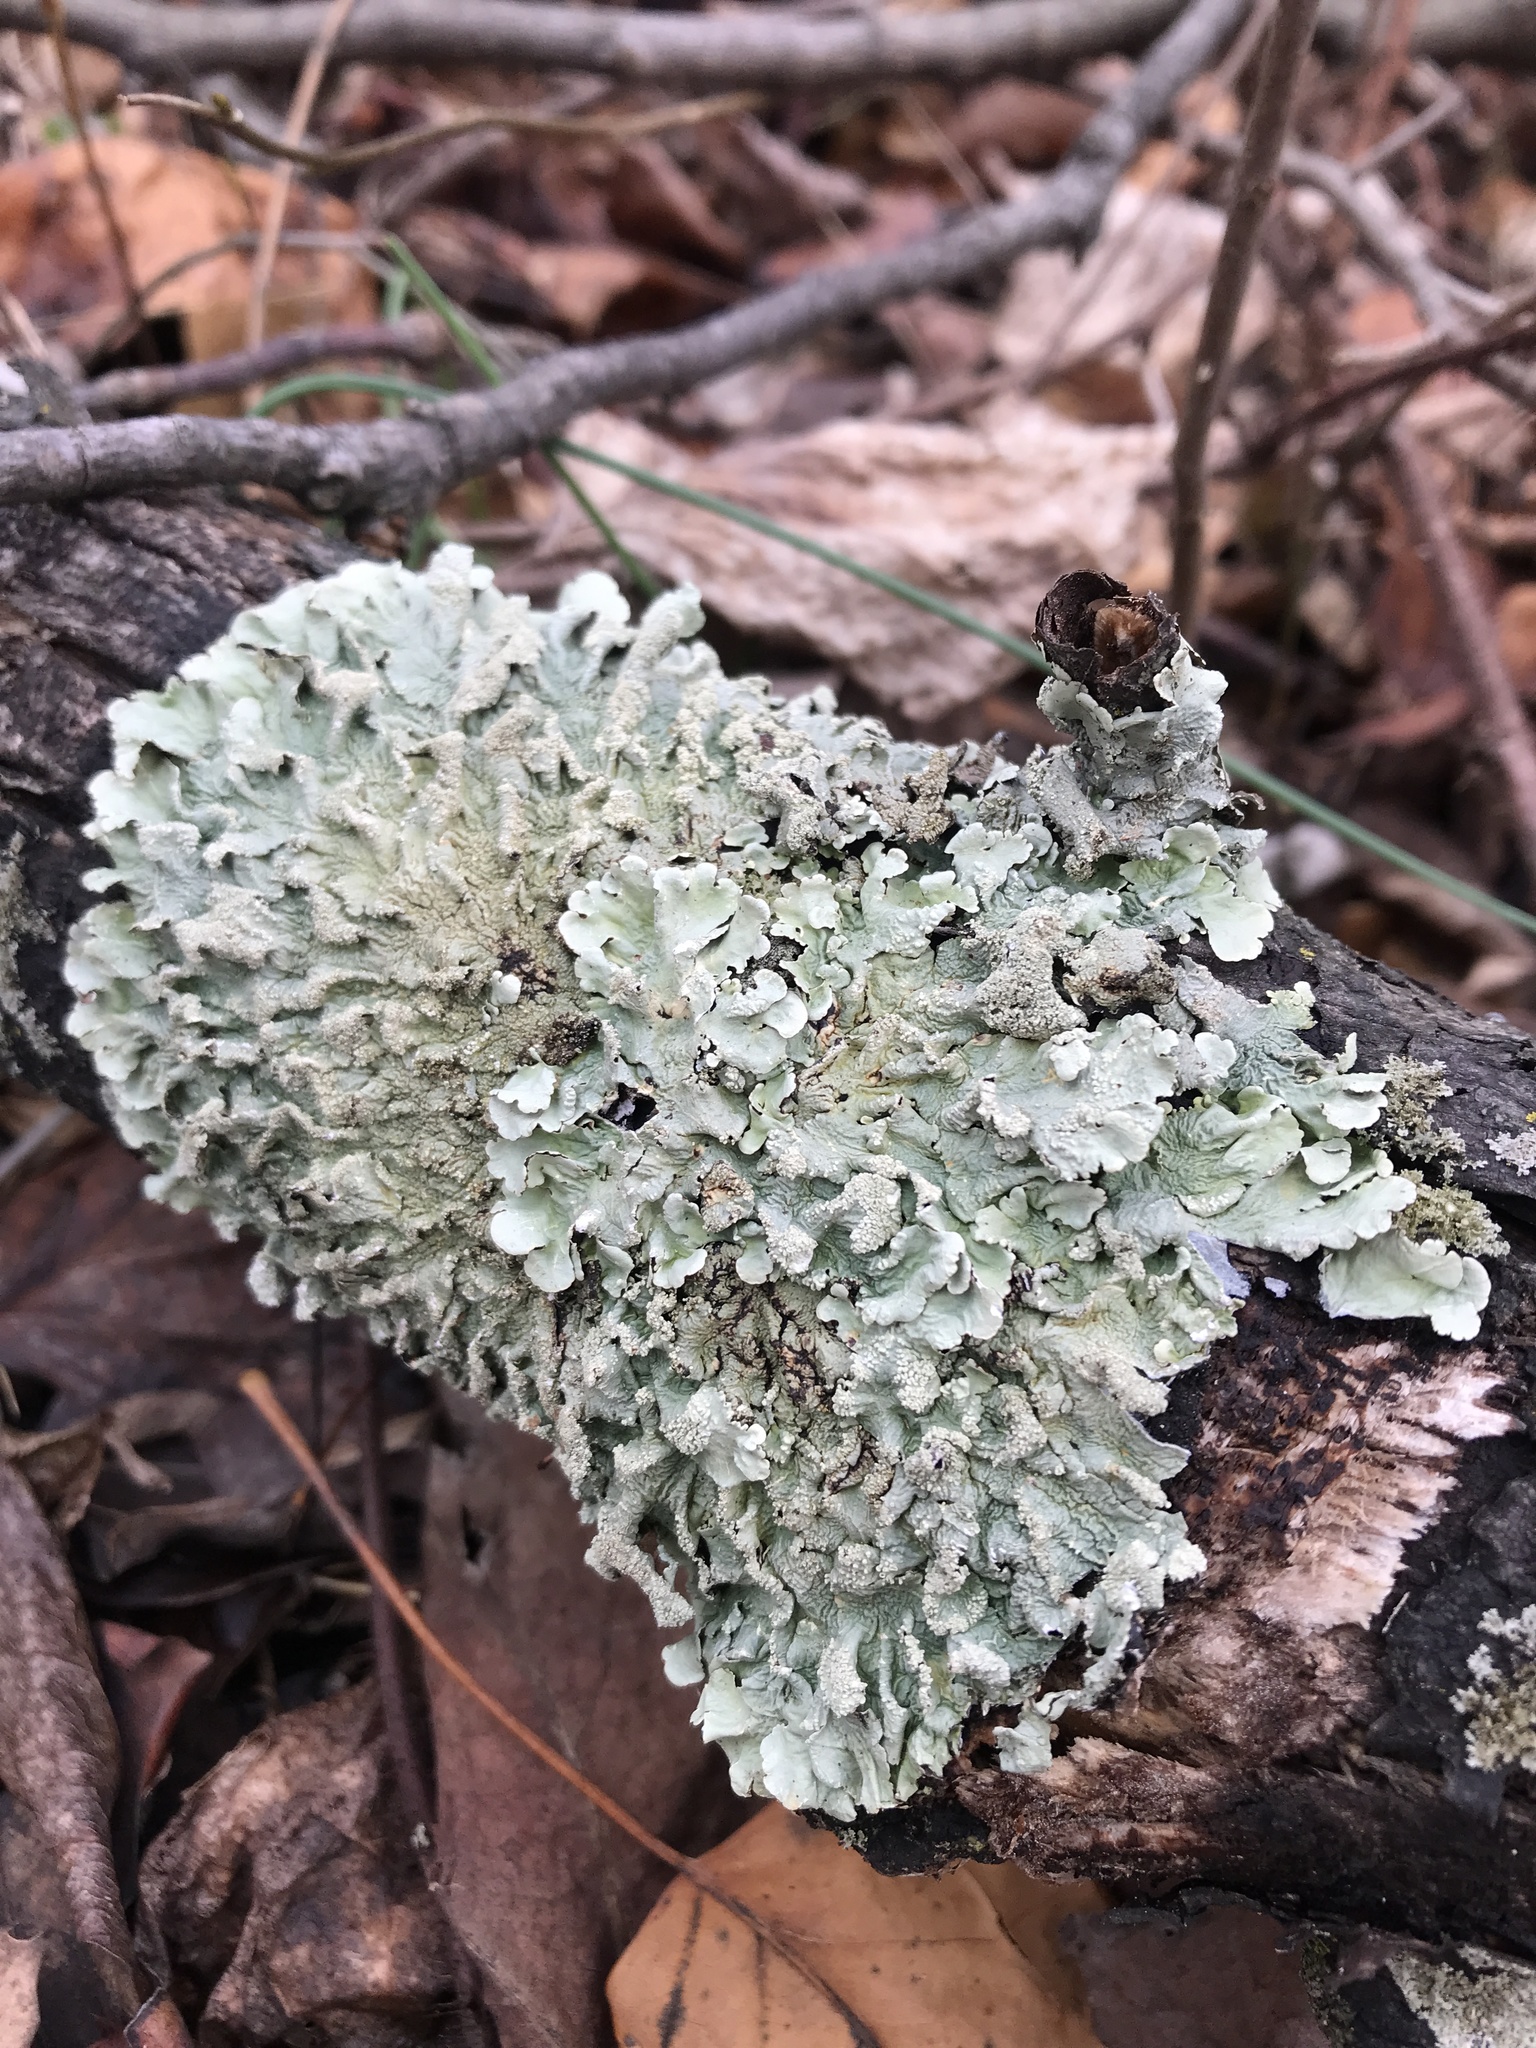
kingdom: Fungi
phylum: Ascomycota
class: Lecanoromycetes
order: Lecanorales
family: Parmeliaceae
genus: Flavoparmelia
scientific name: Flavoparmelia caperata
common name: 40-mile per hour lichen
